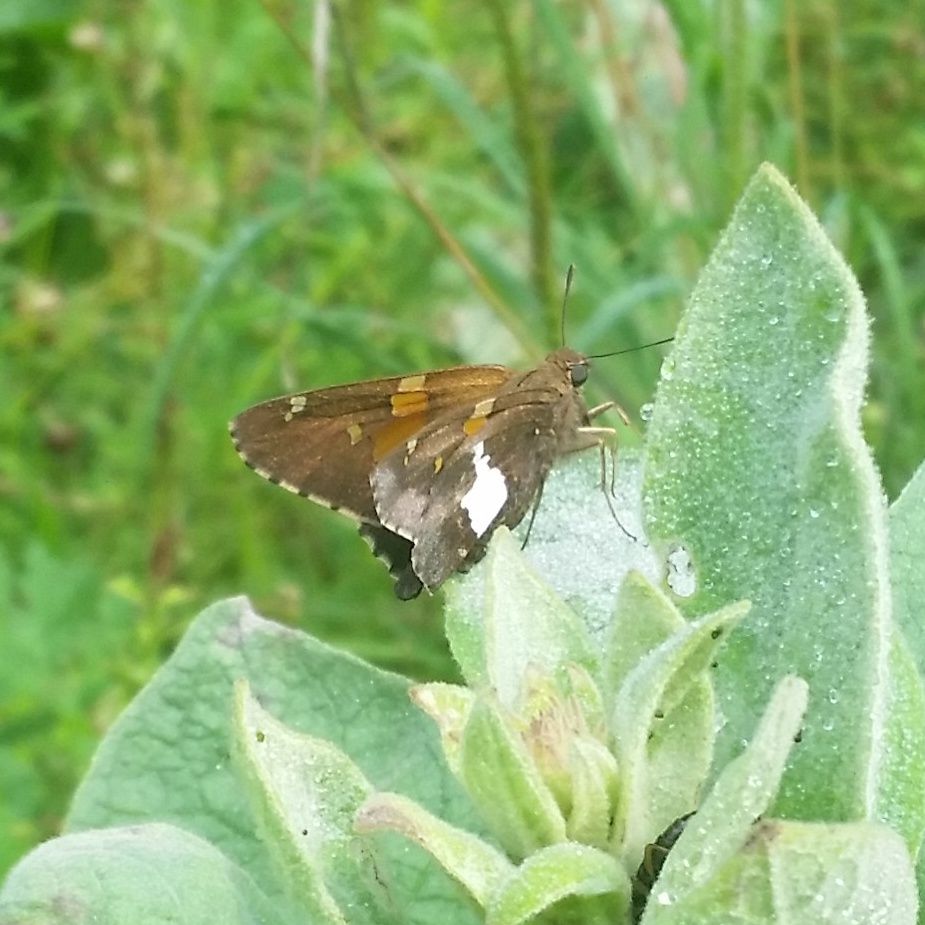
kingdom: Animalia
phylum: Arthropoda
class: Insecta
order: Lepidoptera
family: Hesperiidae
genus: Epargyreus
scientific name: Epargyreus clarus
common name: Silver-spotted skipper
